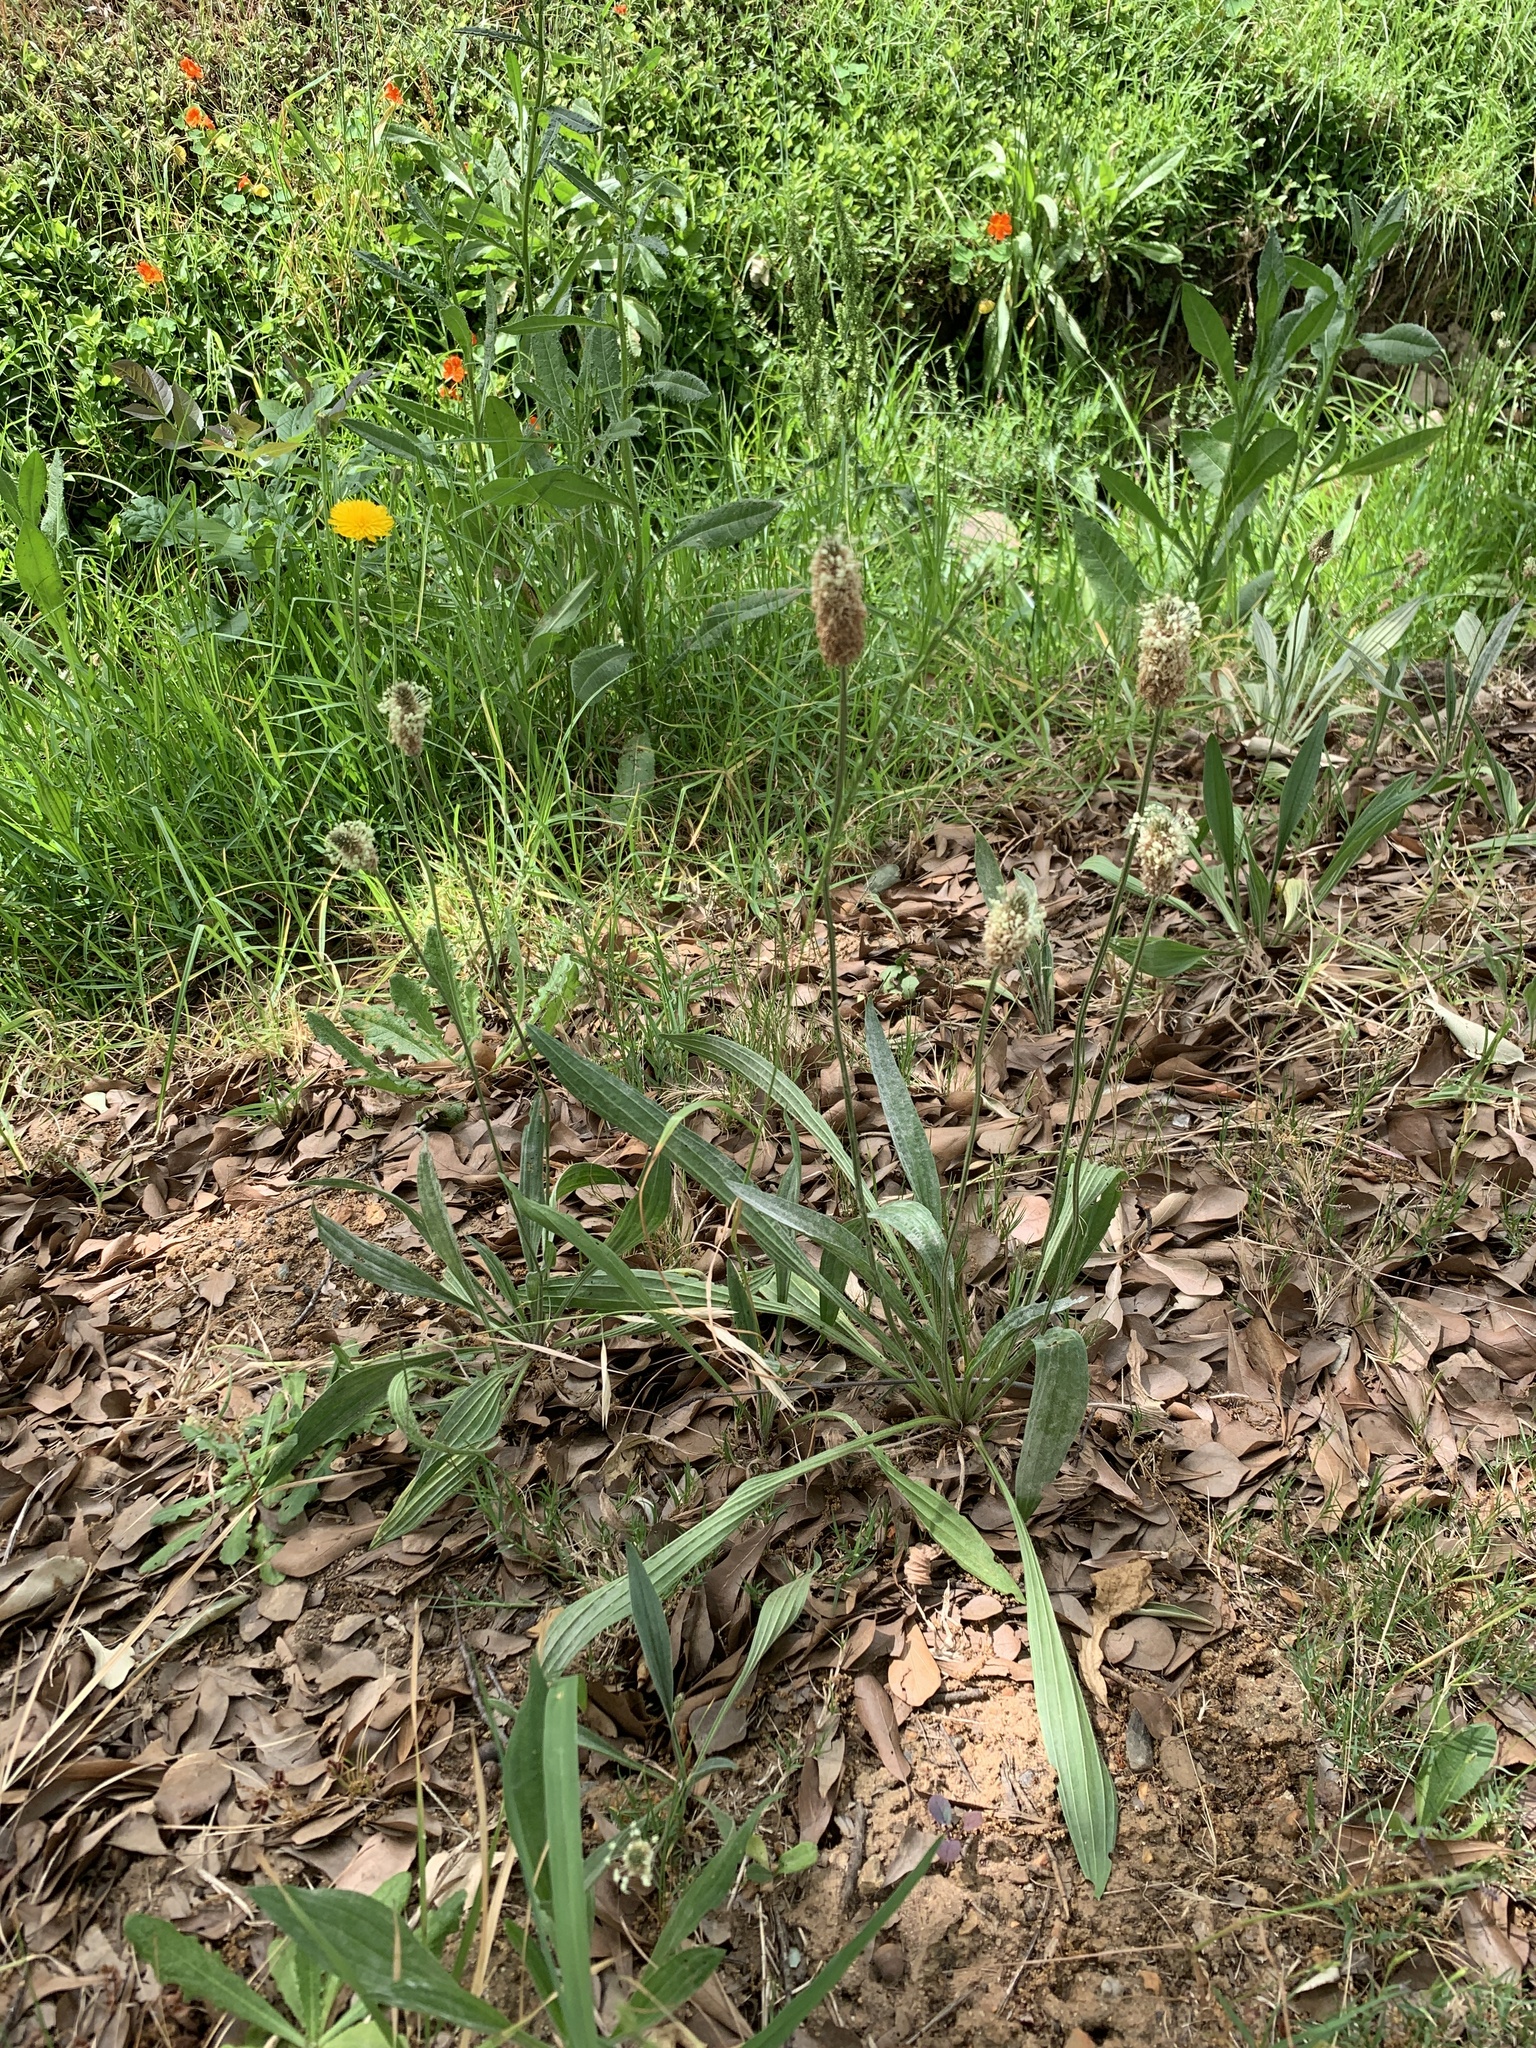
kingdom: Plantae
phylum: Tracheophyta
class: Magnoliopsida
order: Lamiales
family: Plantaginaceae
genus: Plantago
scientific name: Plantago lanceolata
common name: Ribwort plantain
